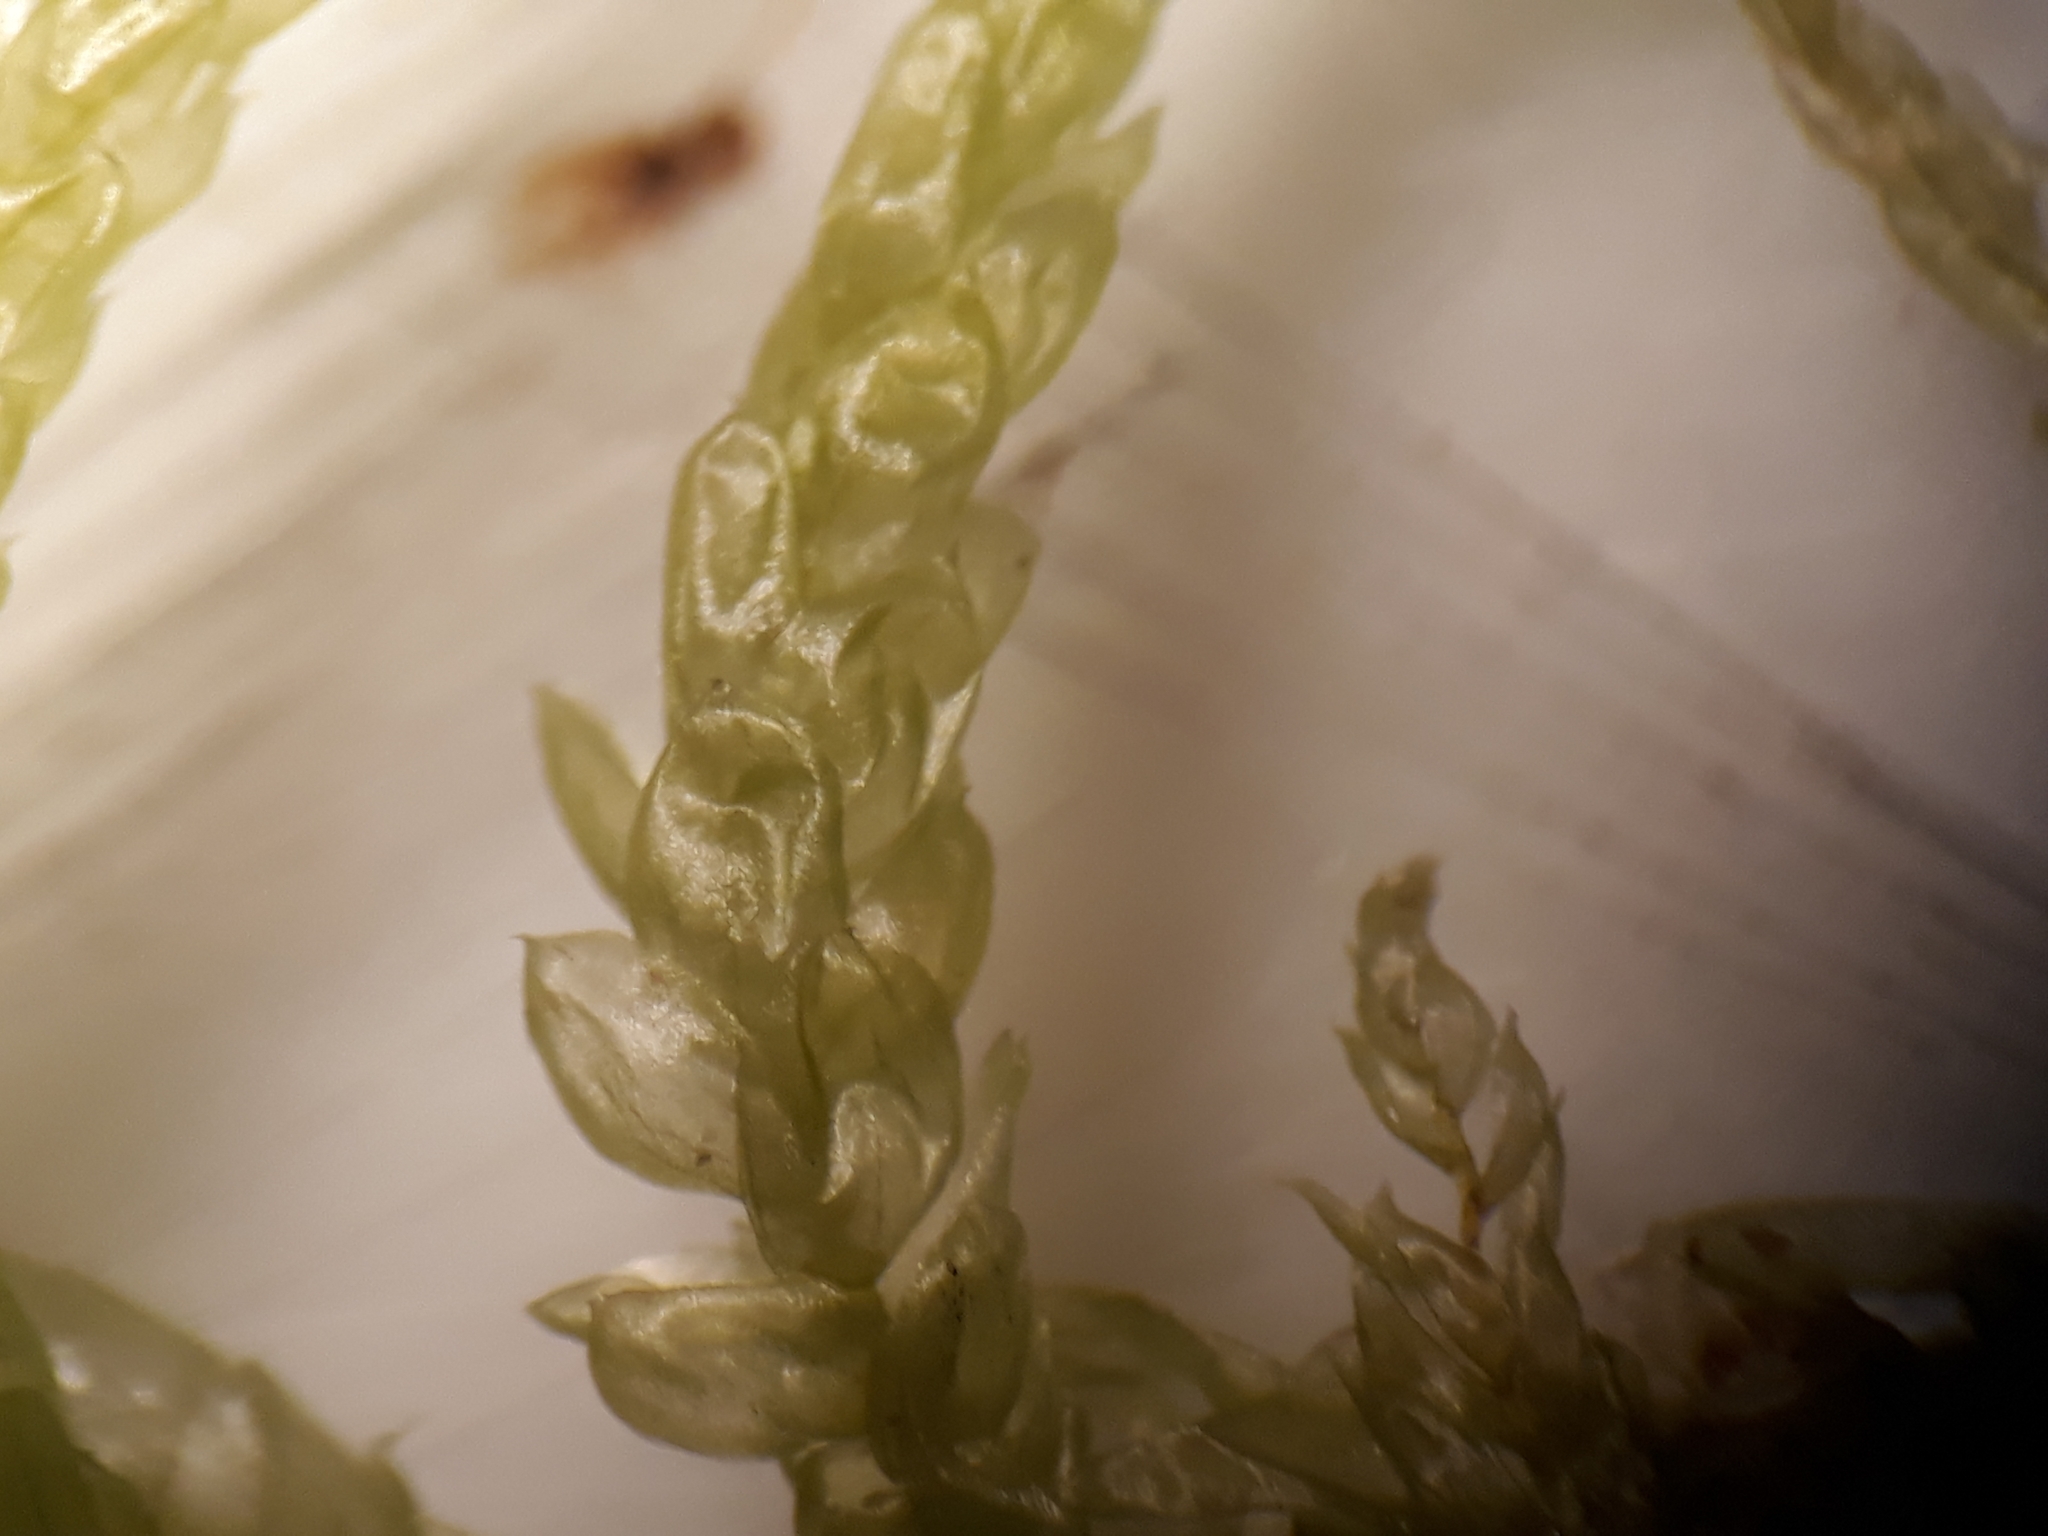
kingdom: Plantae
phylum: Bryophyta
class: Bryopsida
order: Hypnales
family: Brachytheciaceae
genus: Pseudoscleropodium
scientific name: Pseudoscleropodium purum
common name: Neat feather-moss
